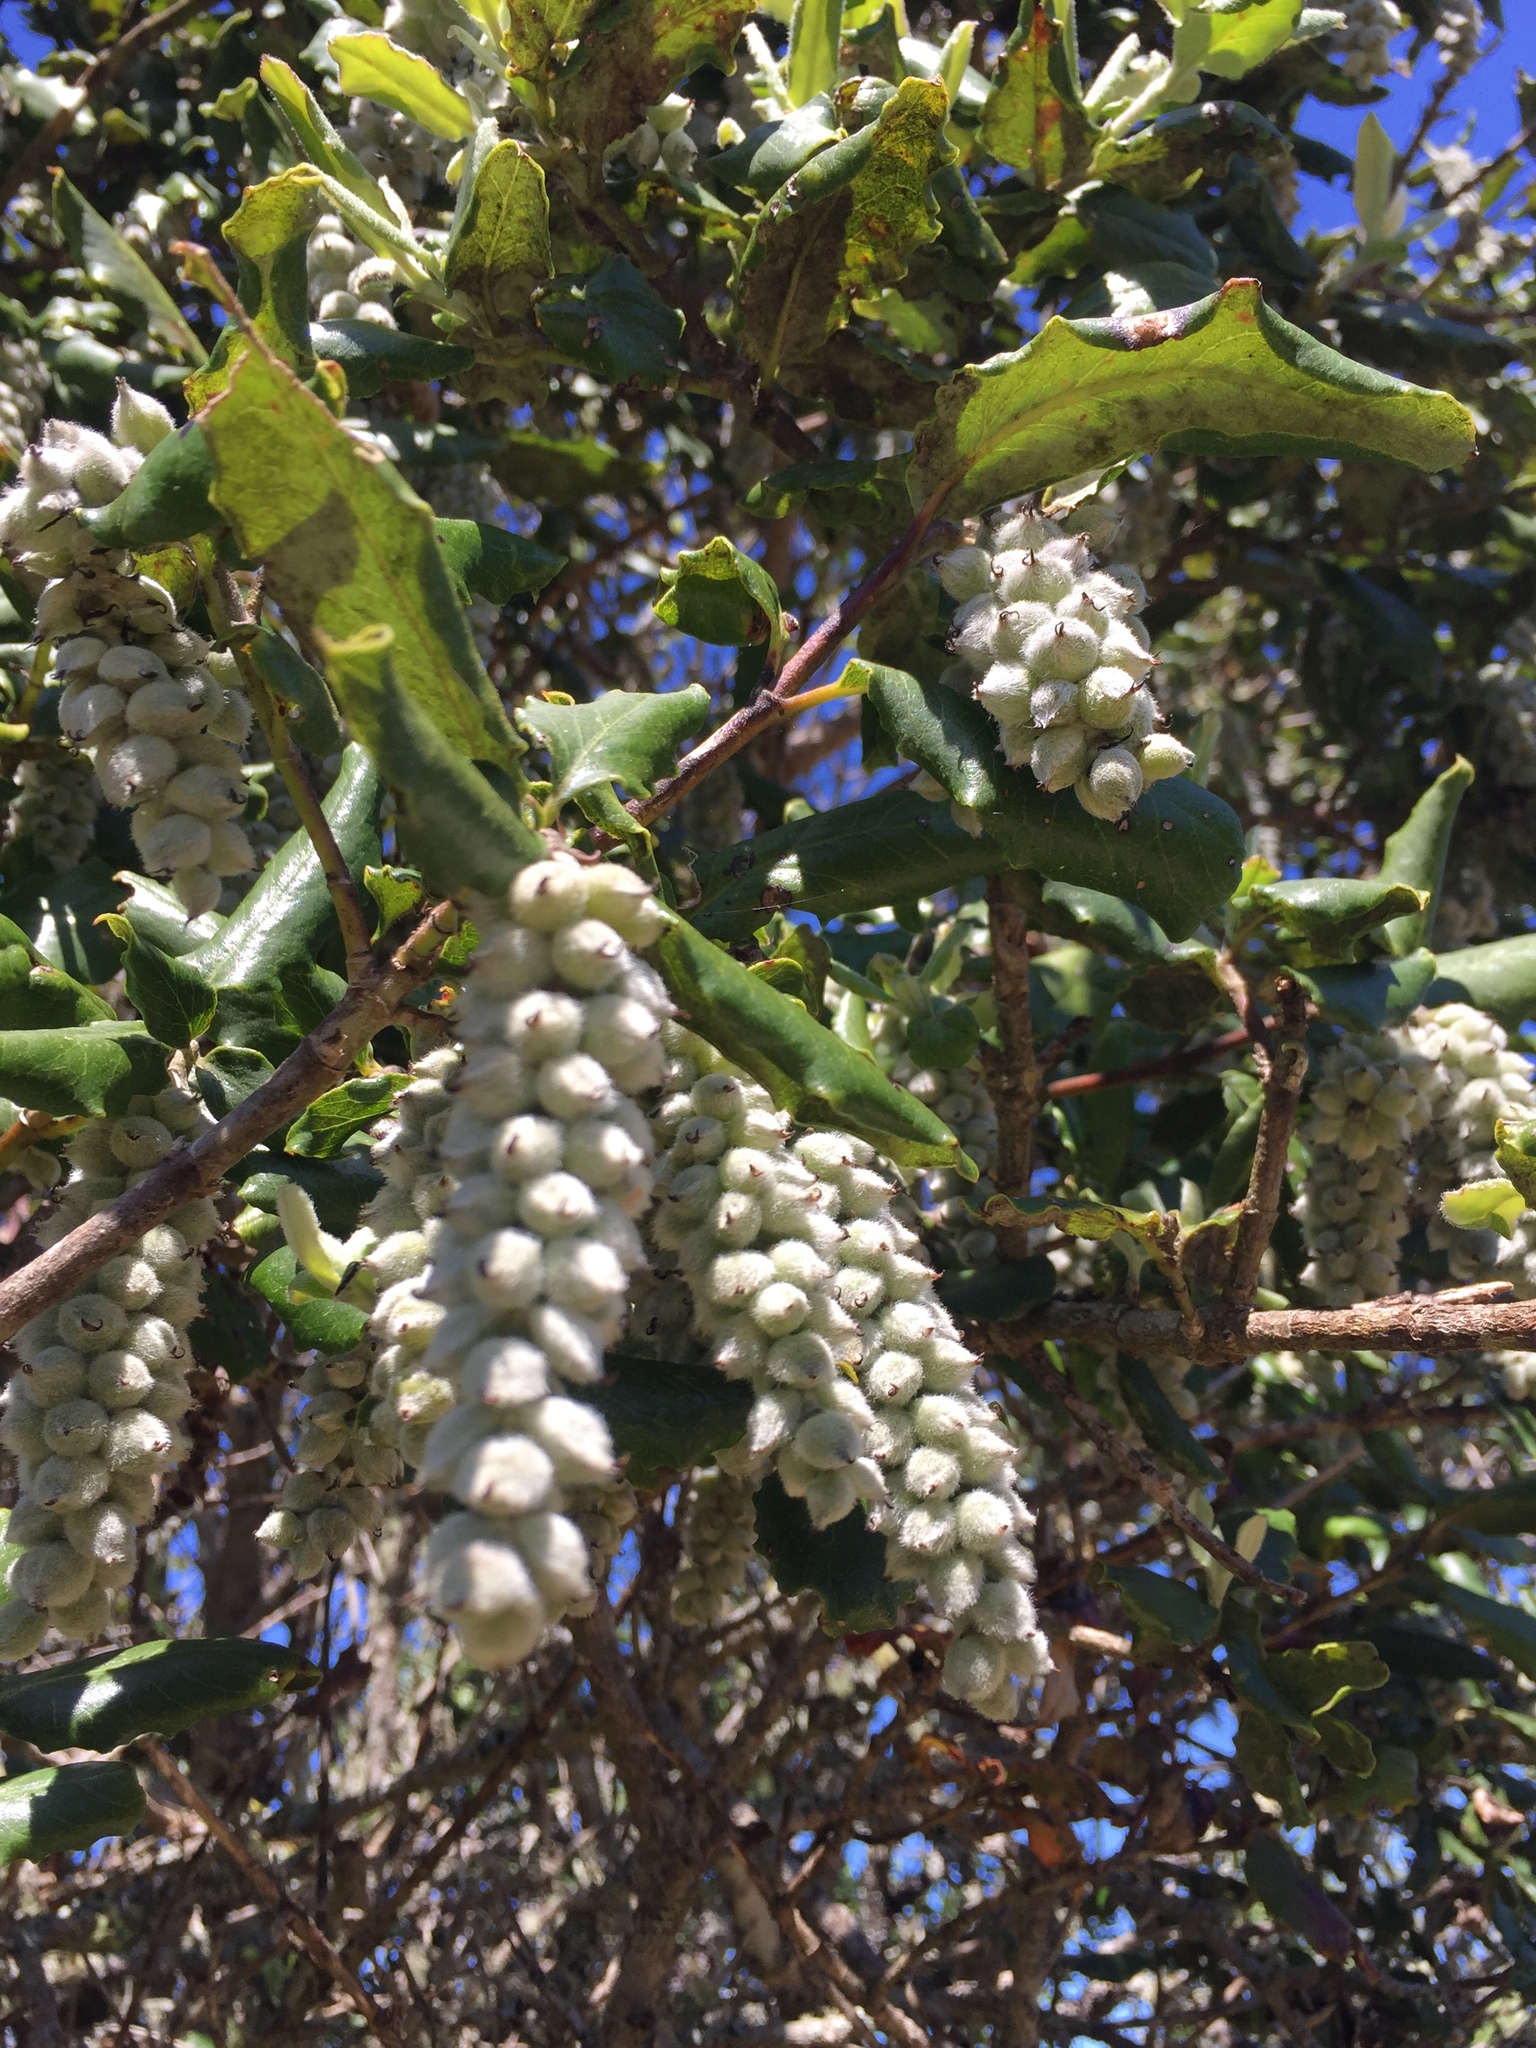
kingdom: Plantae
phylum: Tracheophyta
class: Magnoliopsida
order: Garryales
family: Garryaceae
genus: Garrya
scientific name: Garrya elliptica
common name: Silk-tassel
